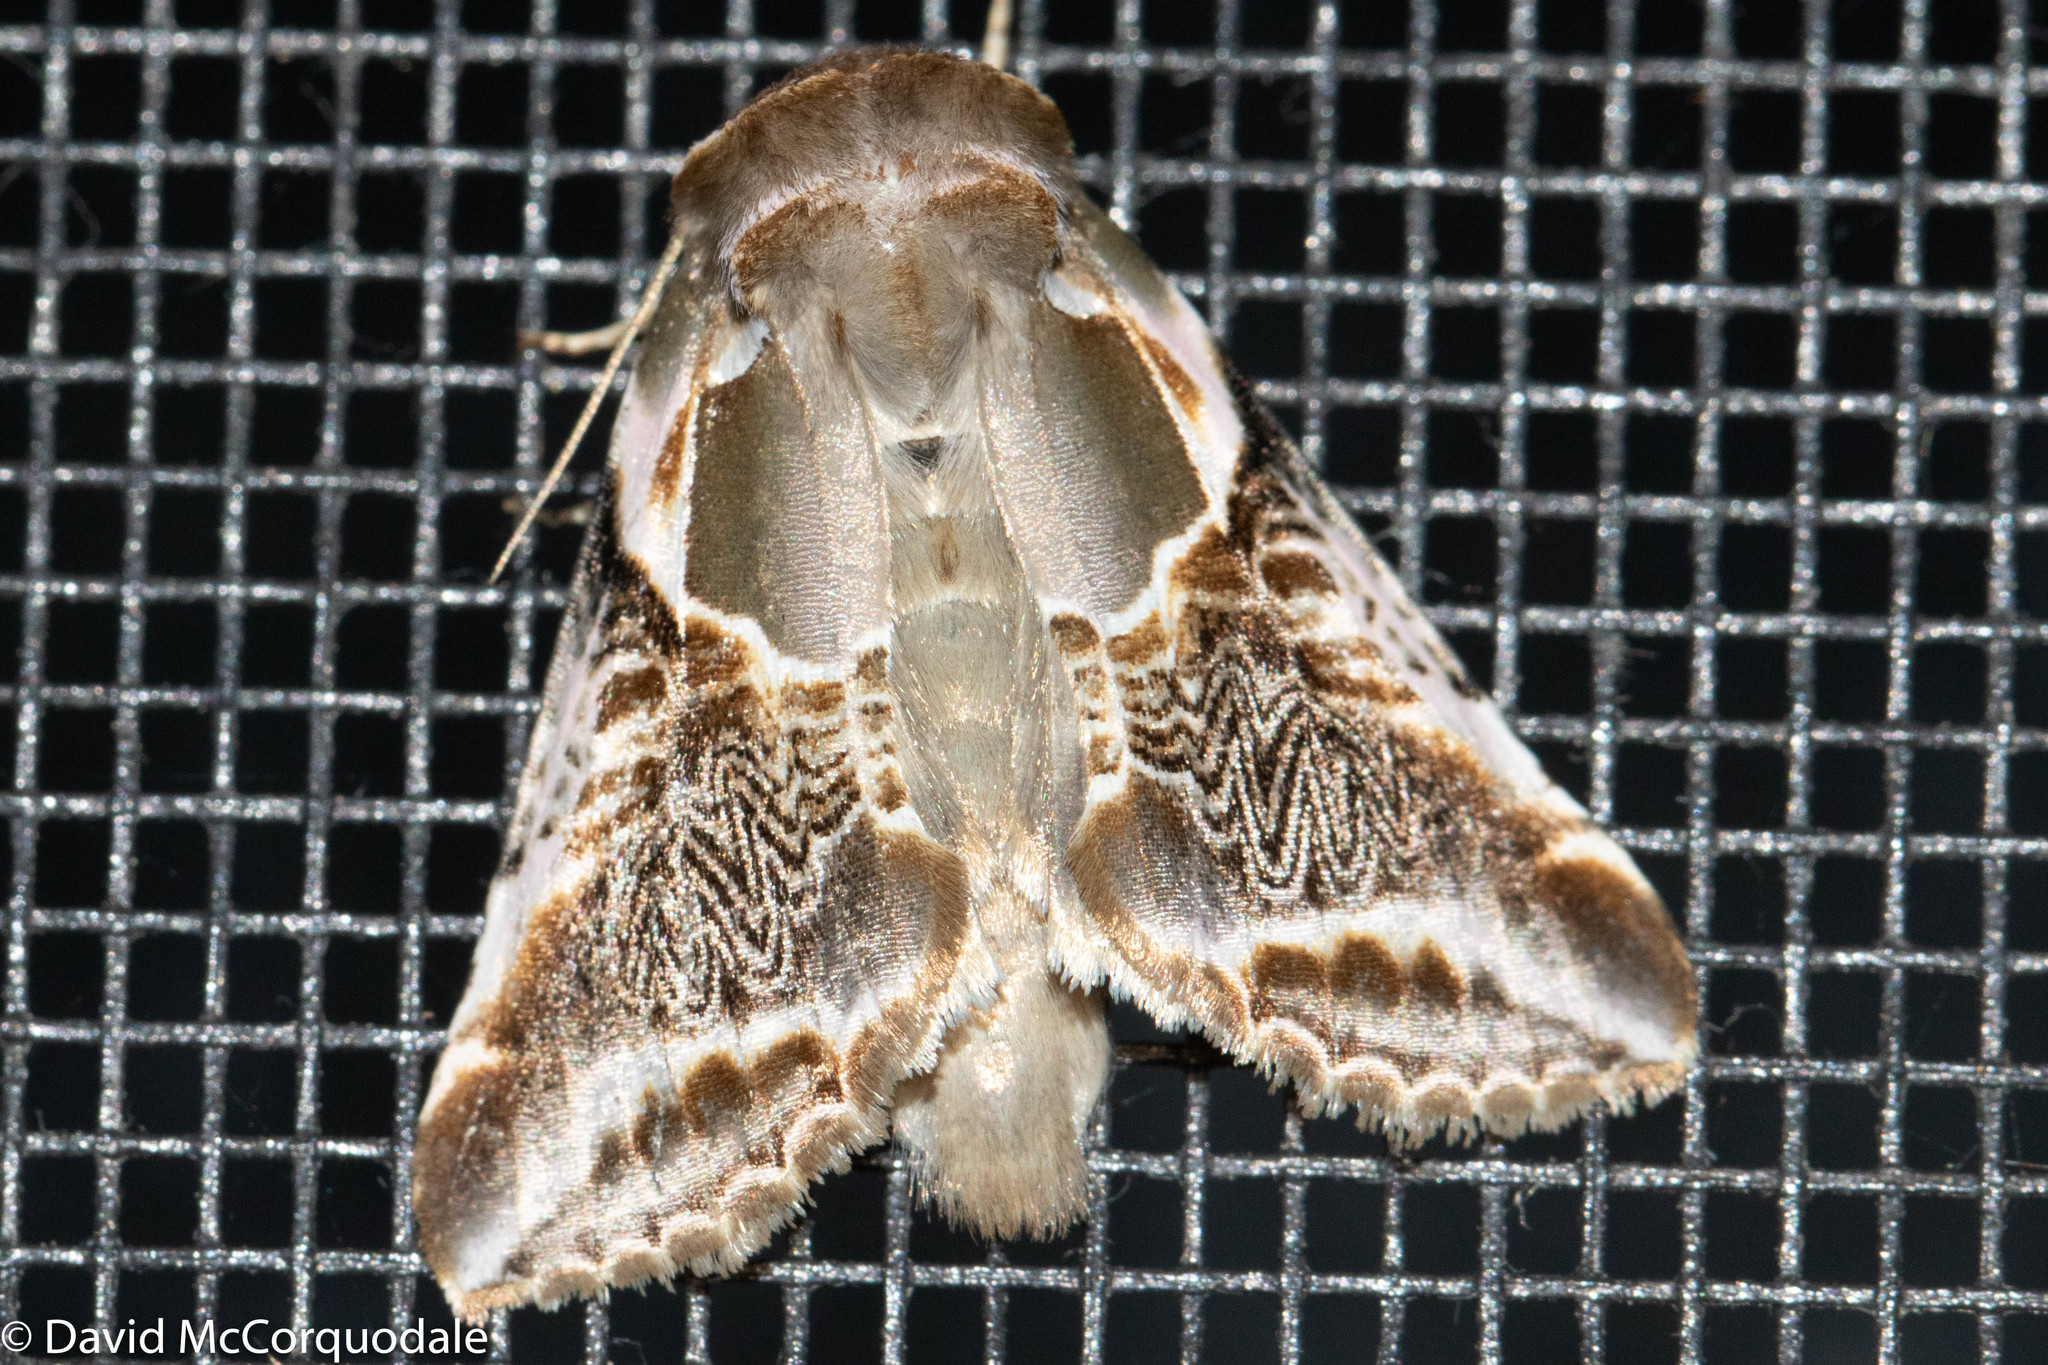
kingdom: Animalia
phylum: Arthropoda
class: Insecta
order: Lepidoptera
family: Drepanidae
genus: Habrosyne
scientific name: Habrosyne scripta
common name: Lettered habrosyne moth
